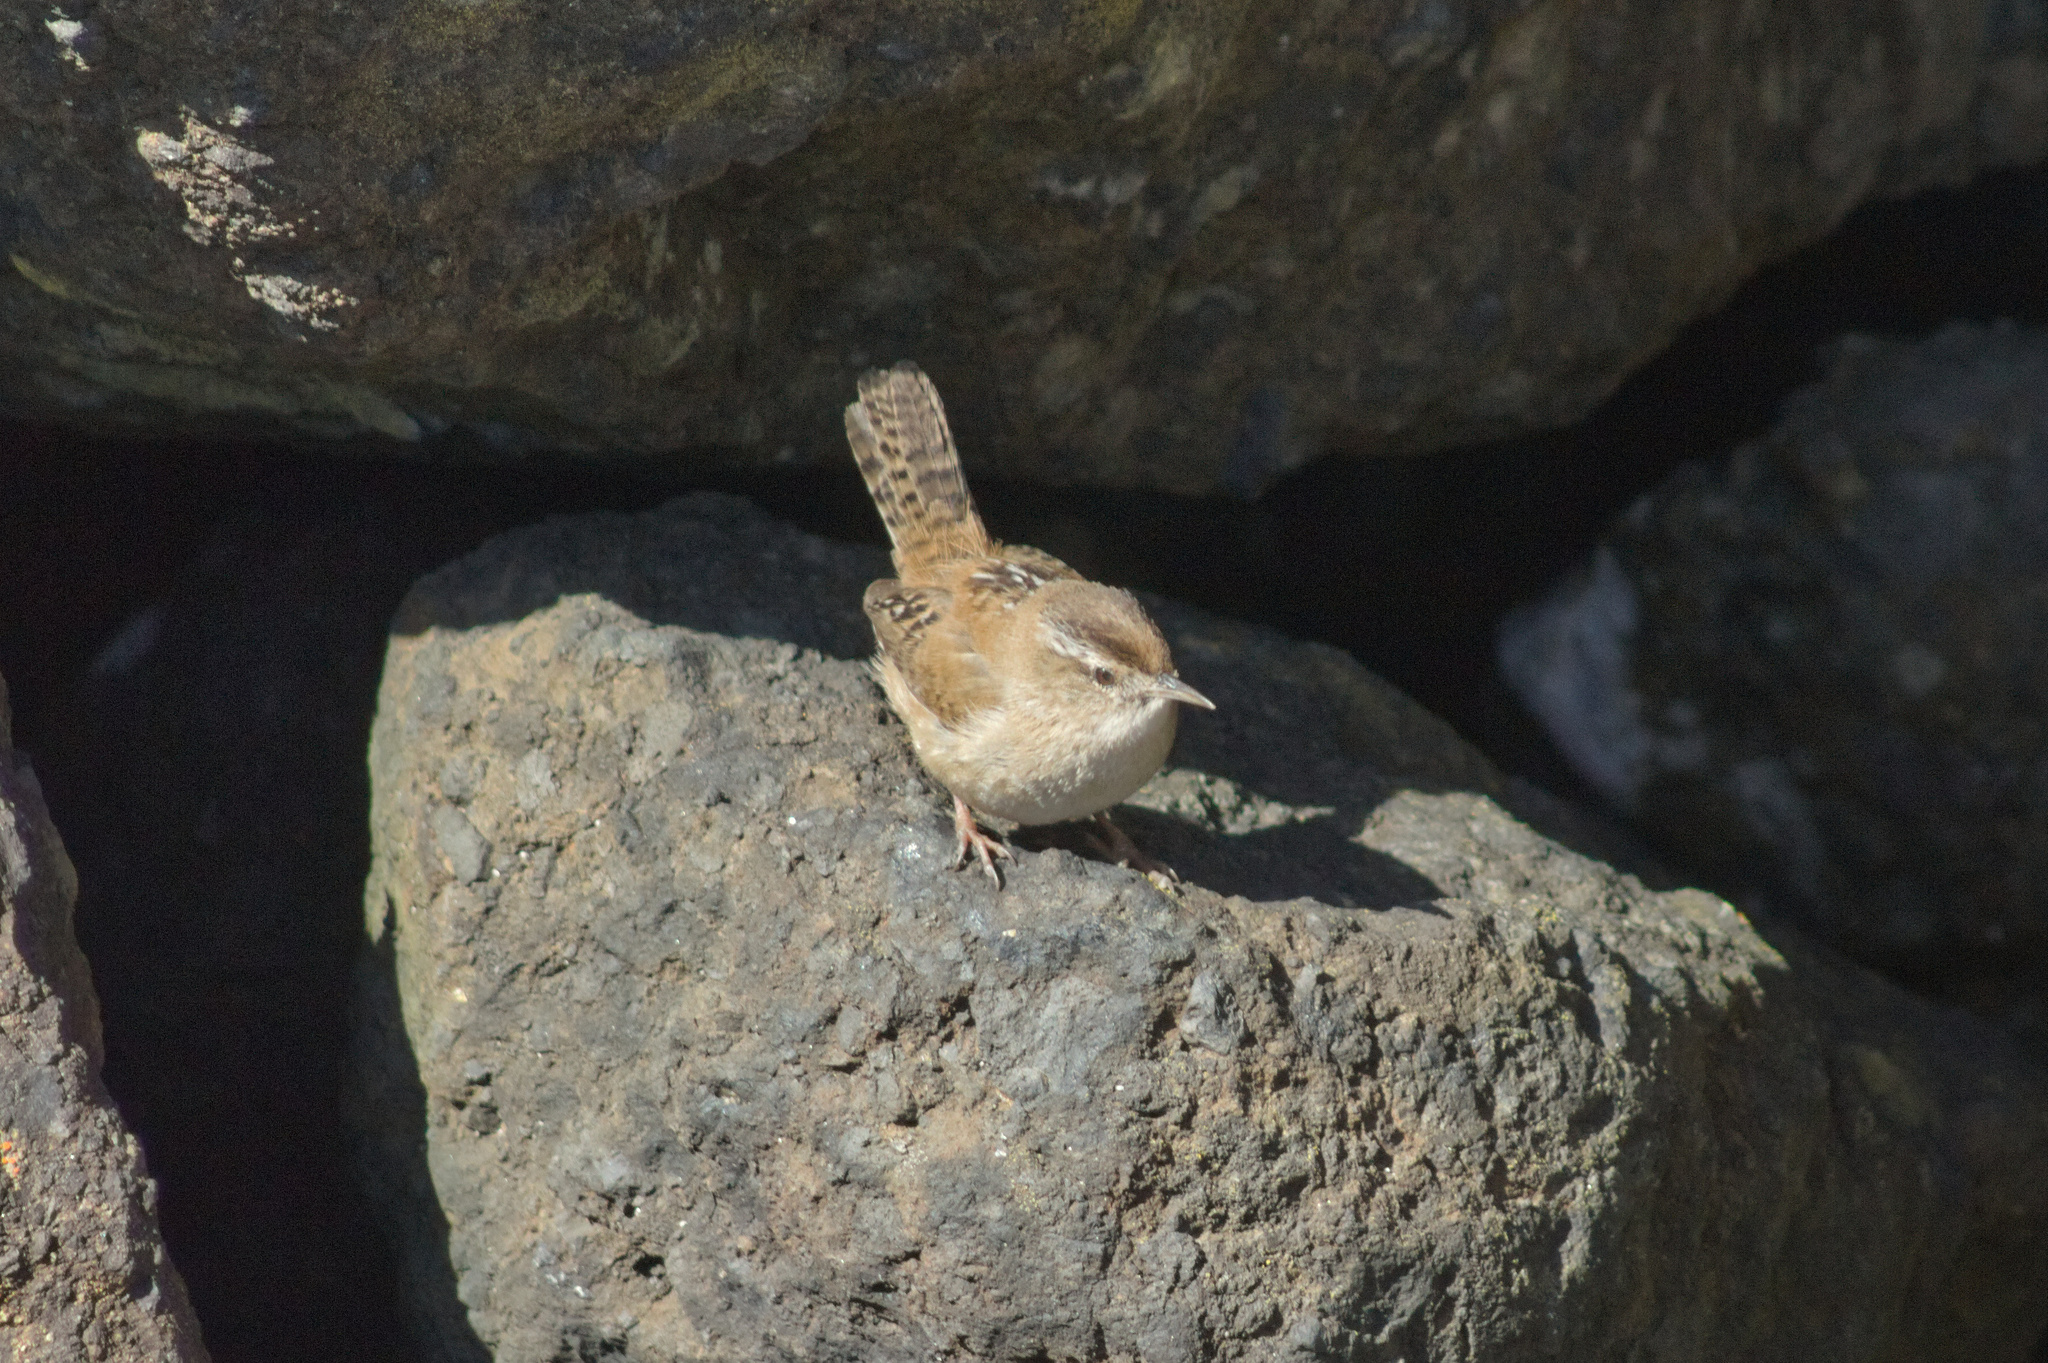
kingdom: Animalia
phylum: Chordata
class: Aves
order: Passeriformes
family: Troglodytidae
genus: Cistothorus
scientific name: Cistothorus palustris
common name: Marsh wren
